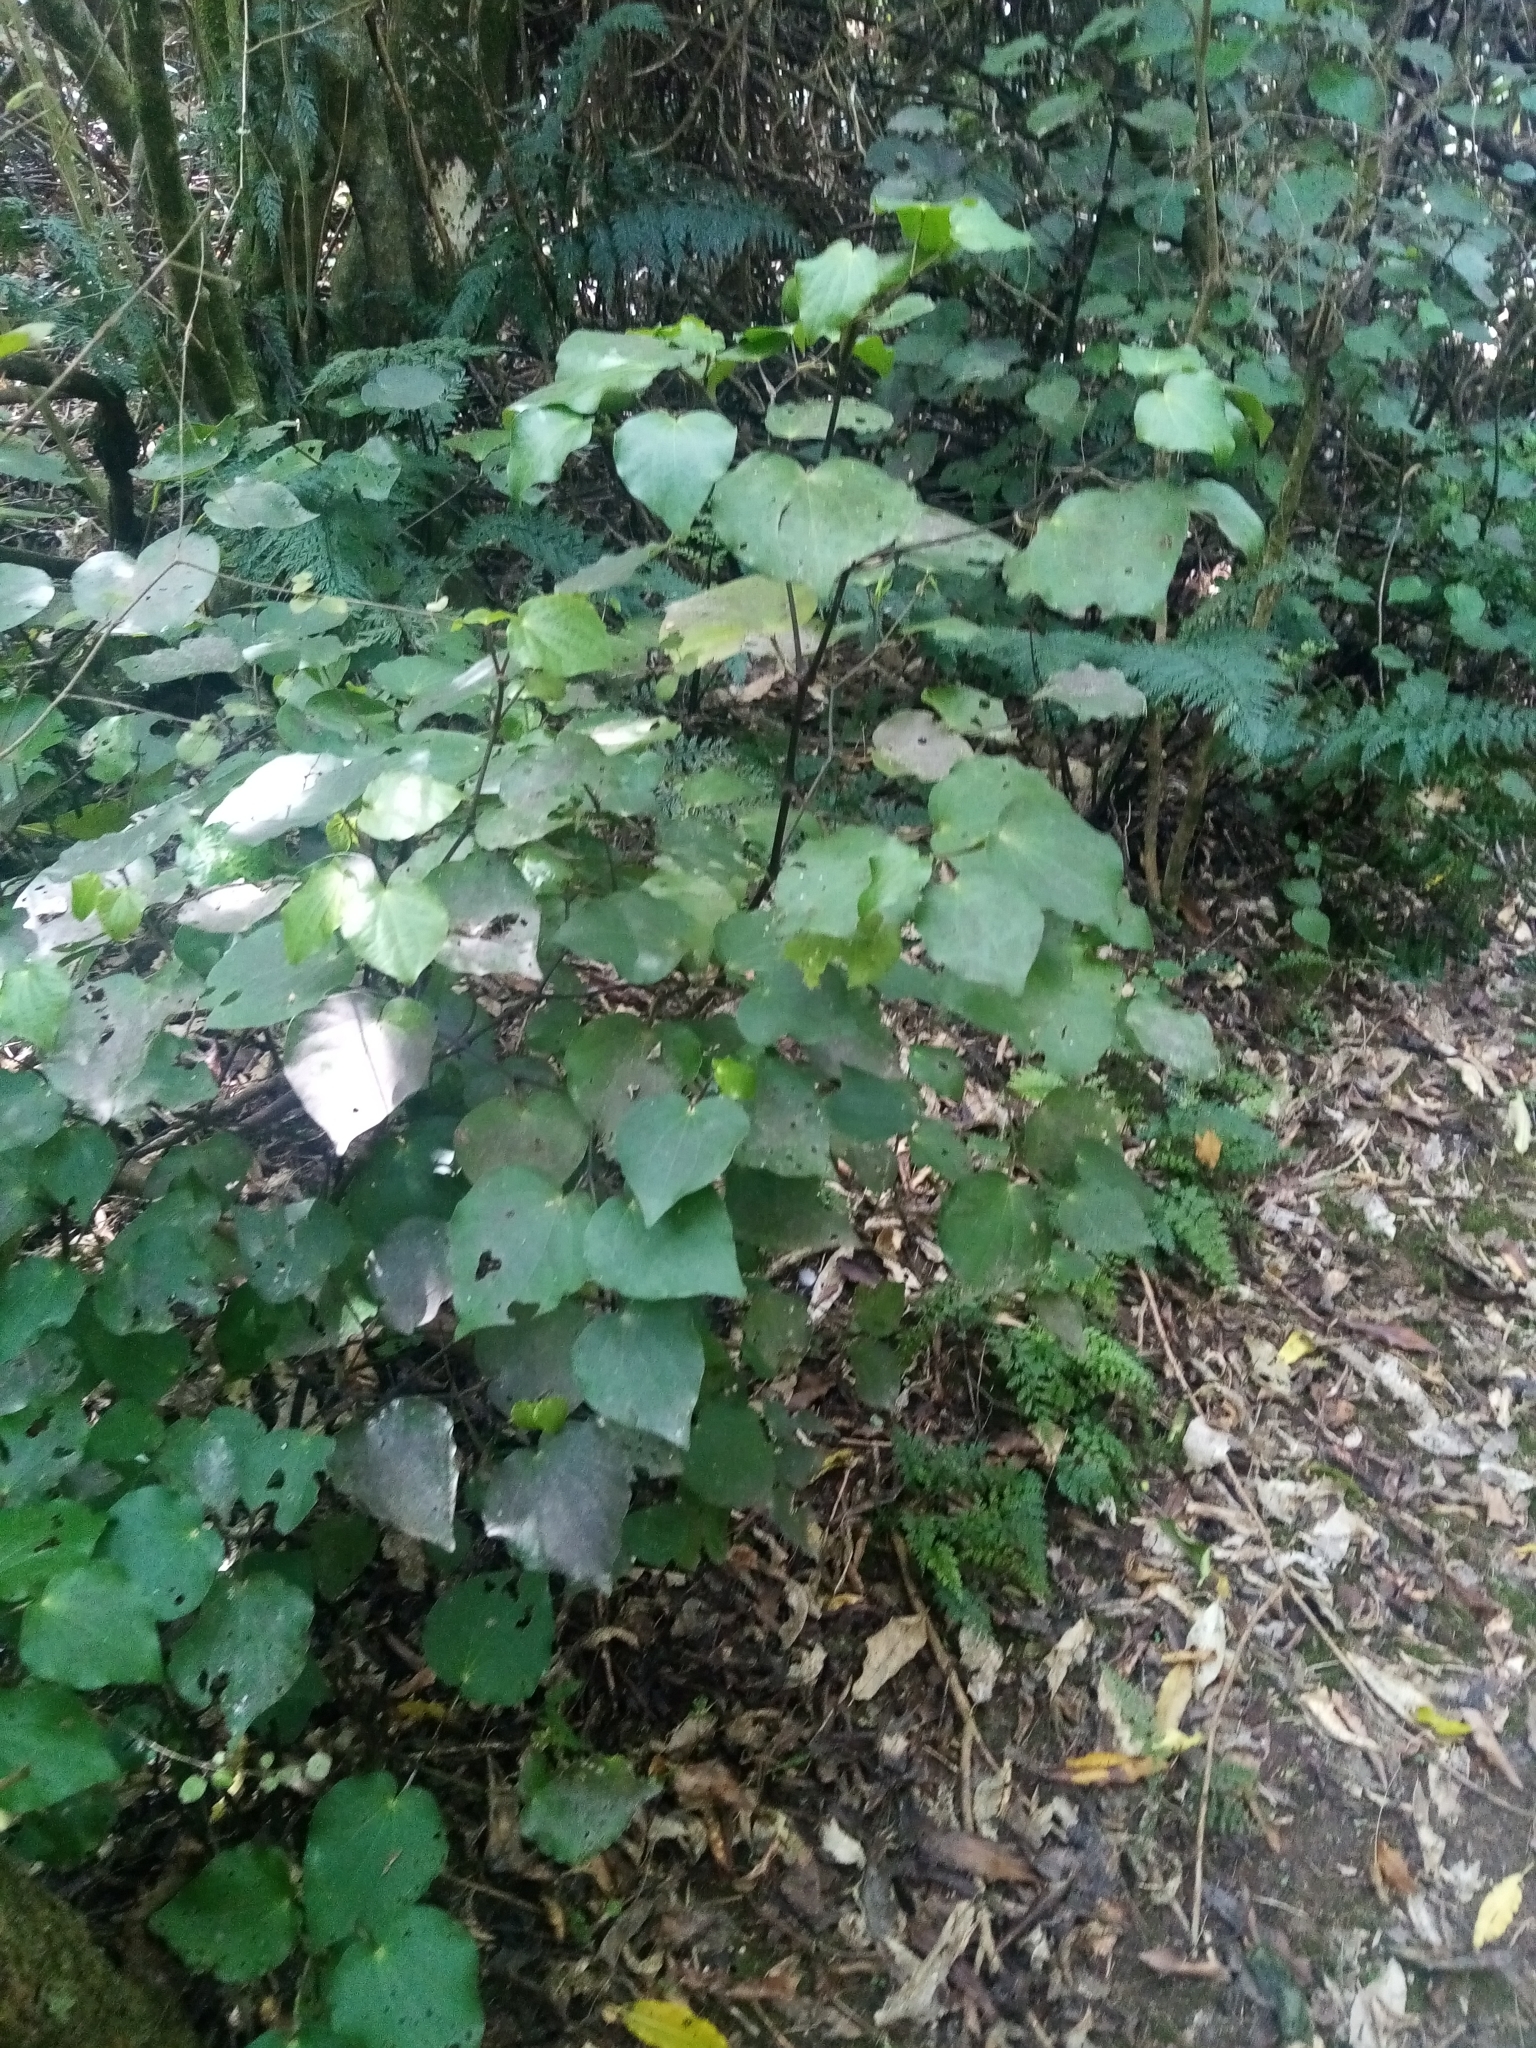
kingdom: Plantae
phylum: Tracheophyta
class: Magnoliopsida
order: Piperales
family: Piperaceae
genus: Macropiper
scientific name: Macropiper excelsum
